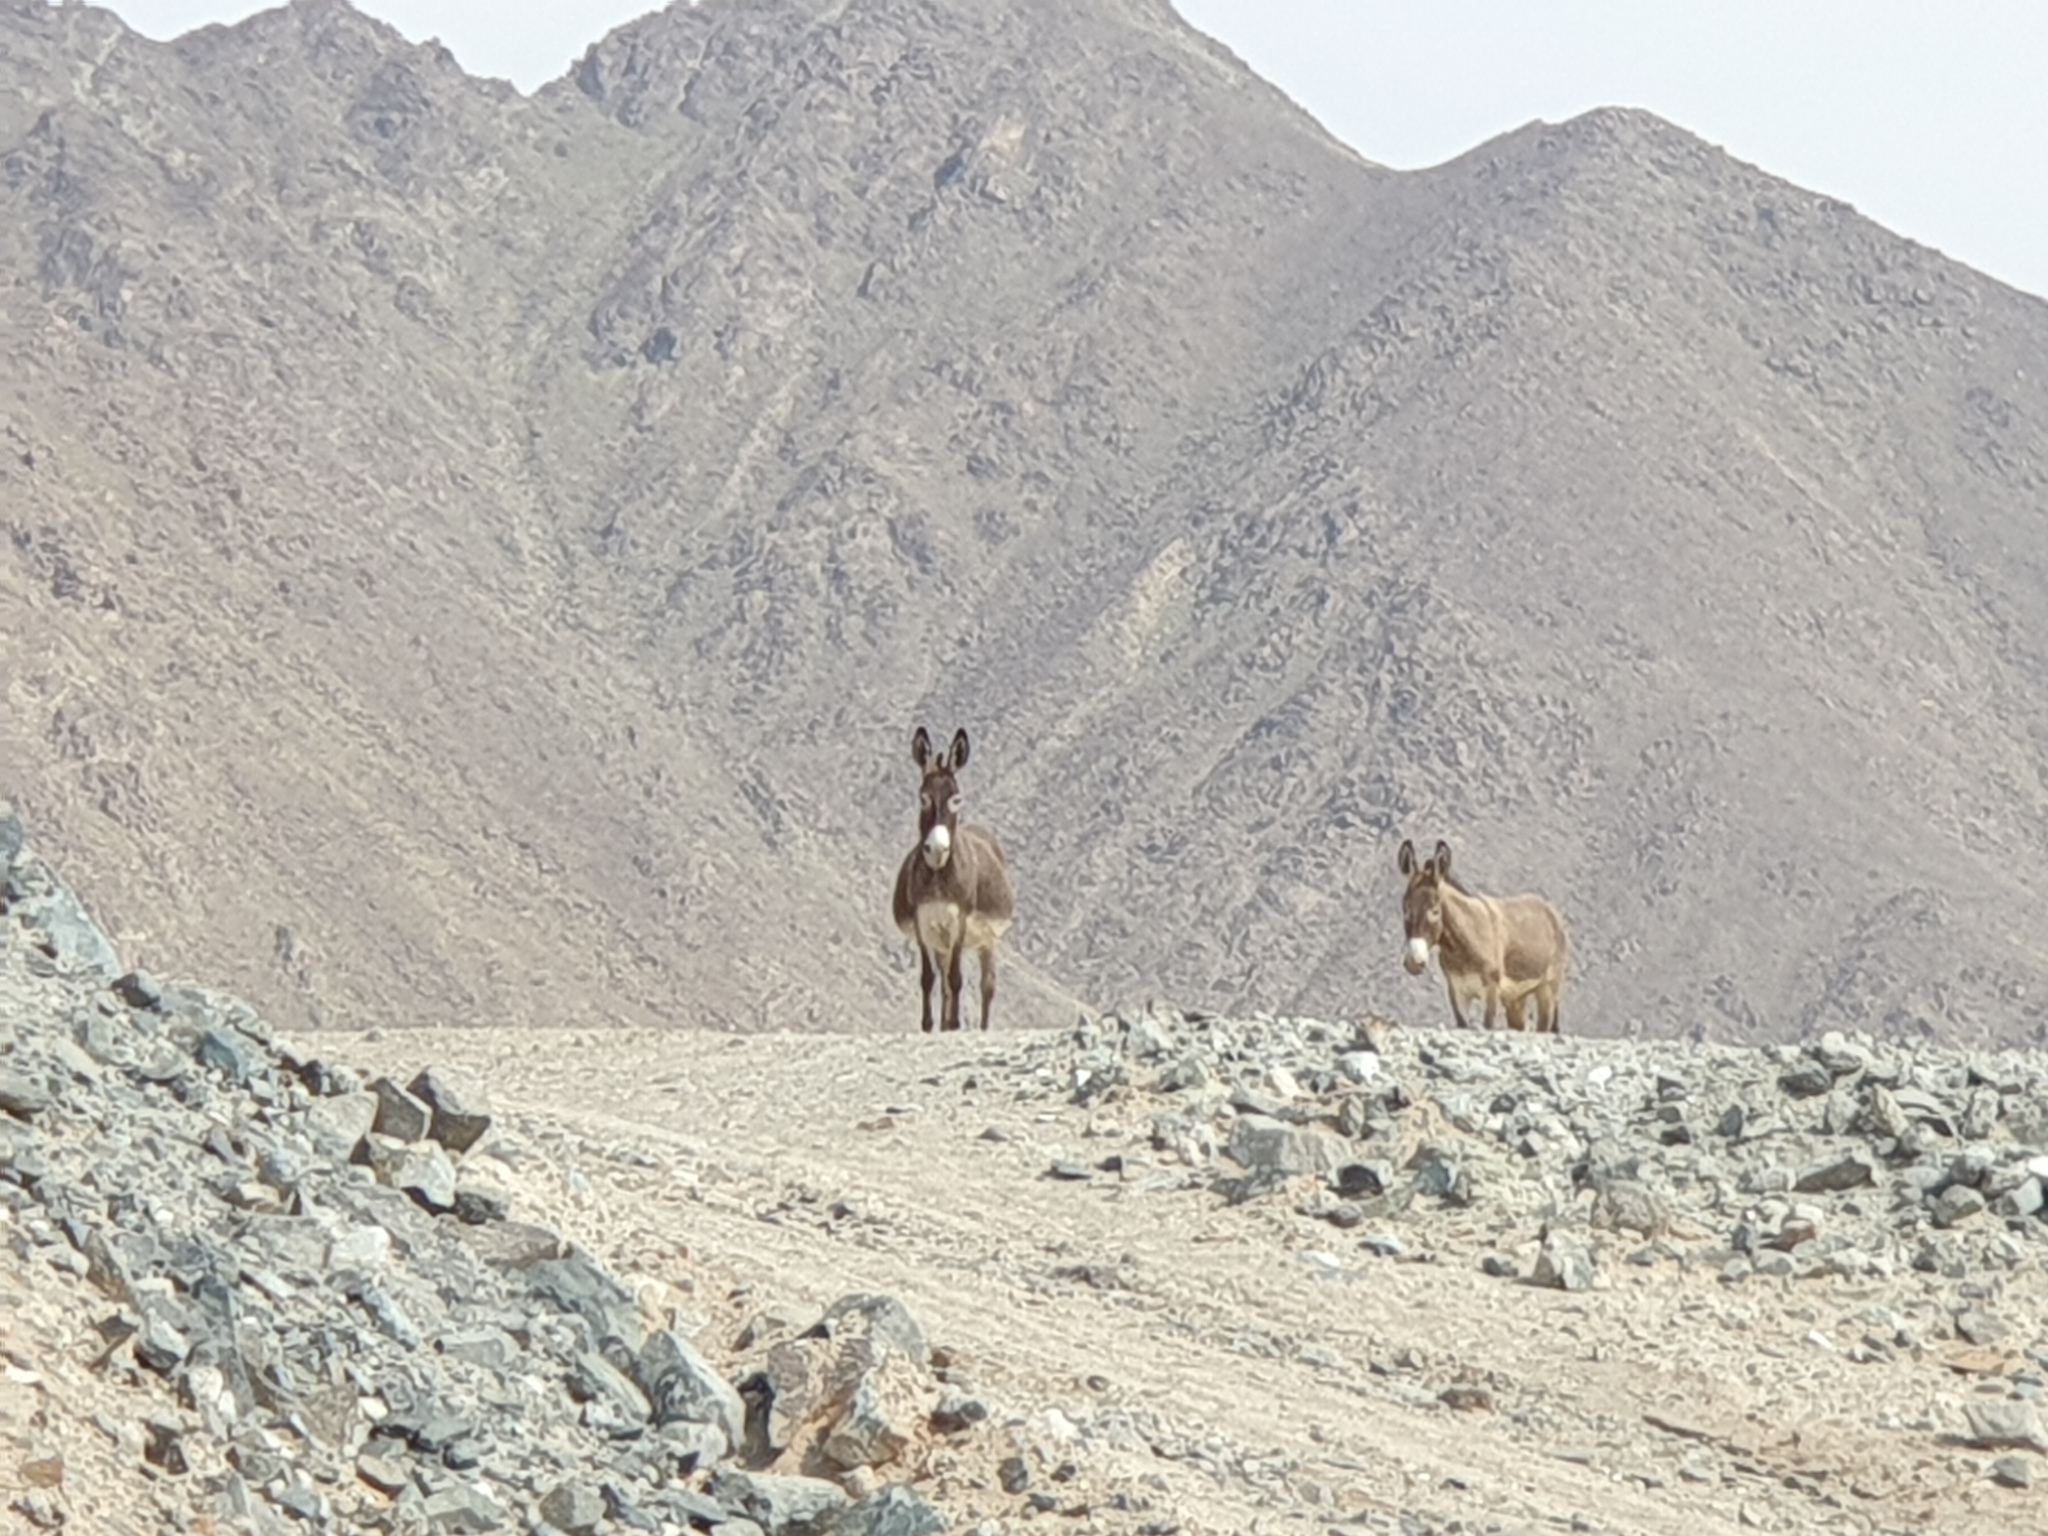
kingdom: Animalia
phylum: Chordata
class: Mammalia
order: Perissodactyla
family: Equidae
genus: Equus
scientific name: Equus asinus
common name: Ass
